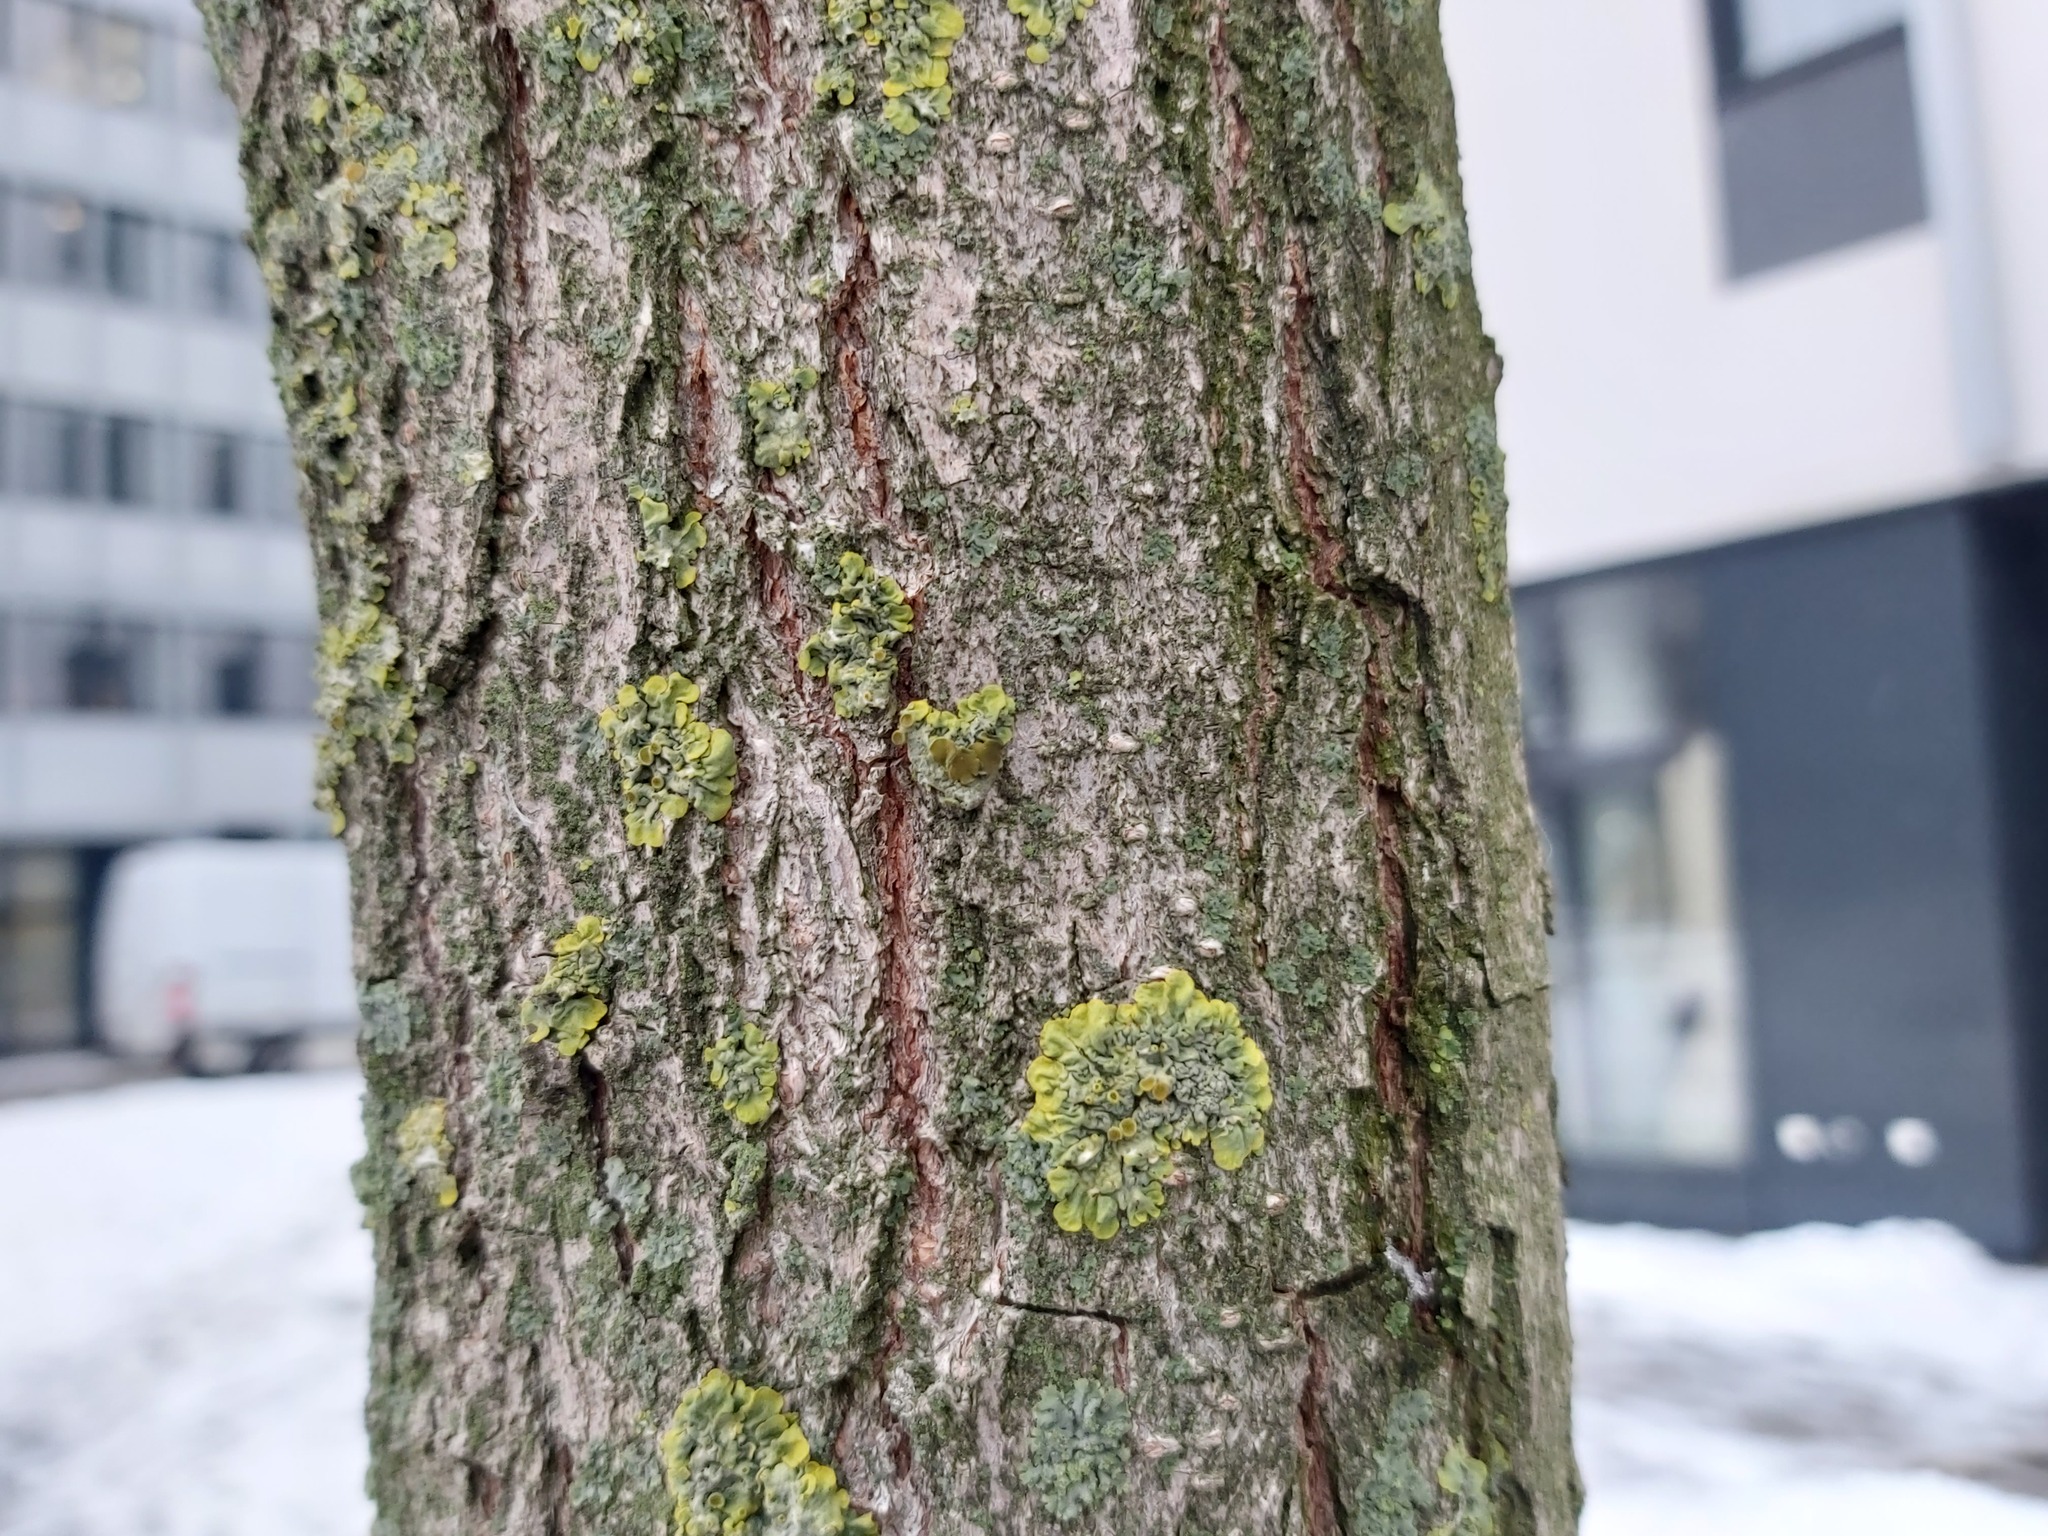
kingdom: Fungi
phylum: Ascomycota
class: Lecanoromycetes
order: Teloschistales
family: Teloschistaceae
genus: Xanthoria
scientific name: Xanthoria parietina
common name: Common orange lichen
